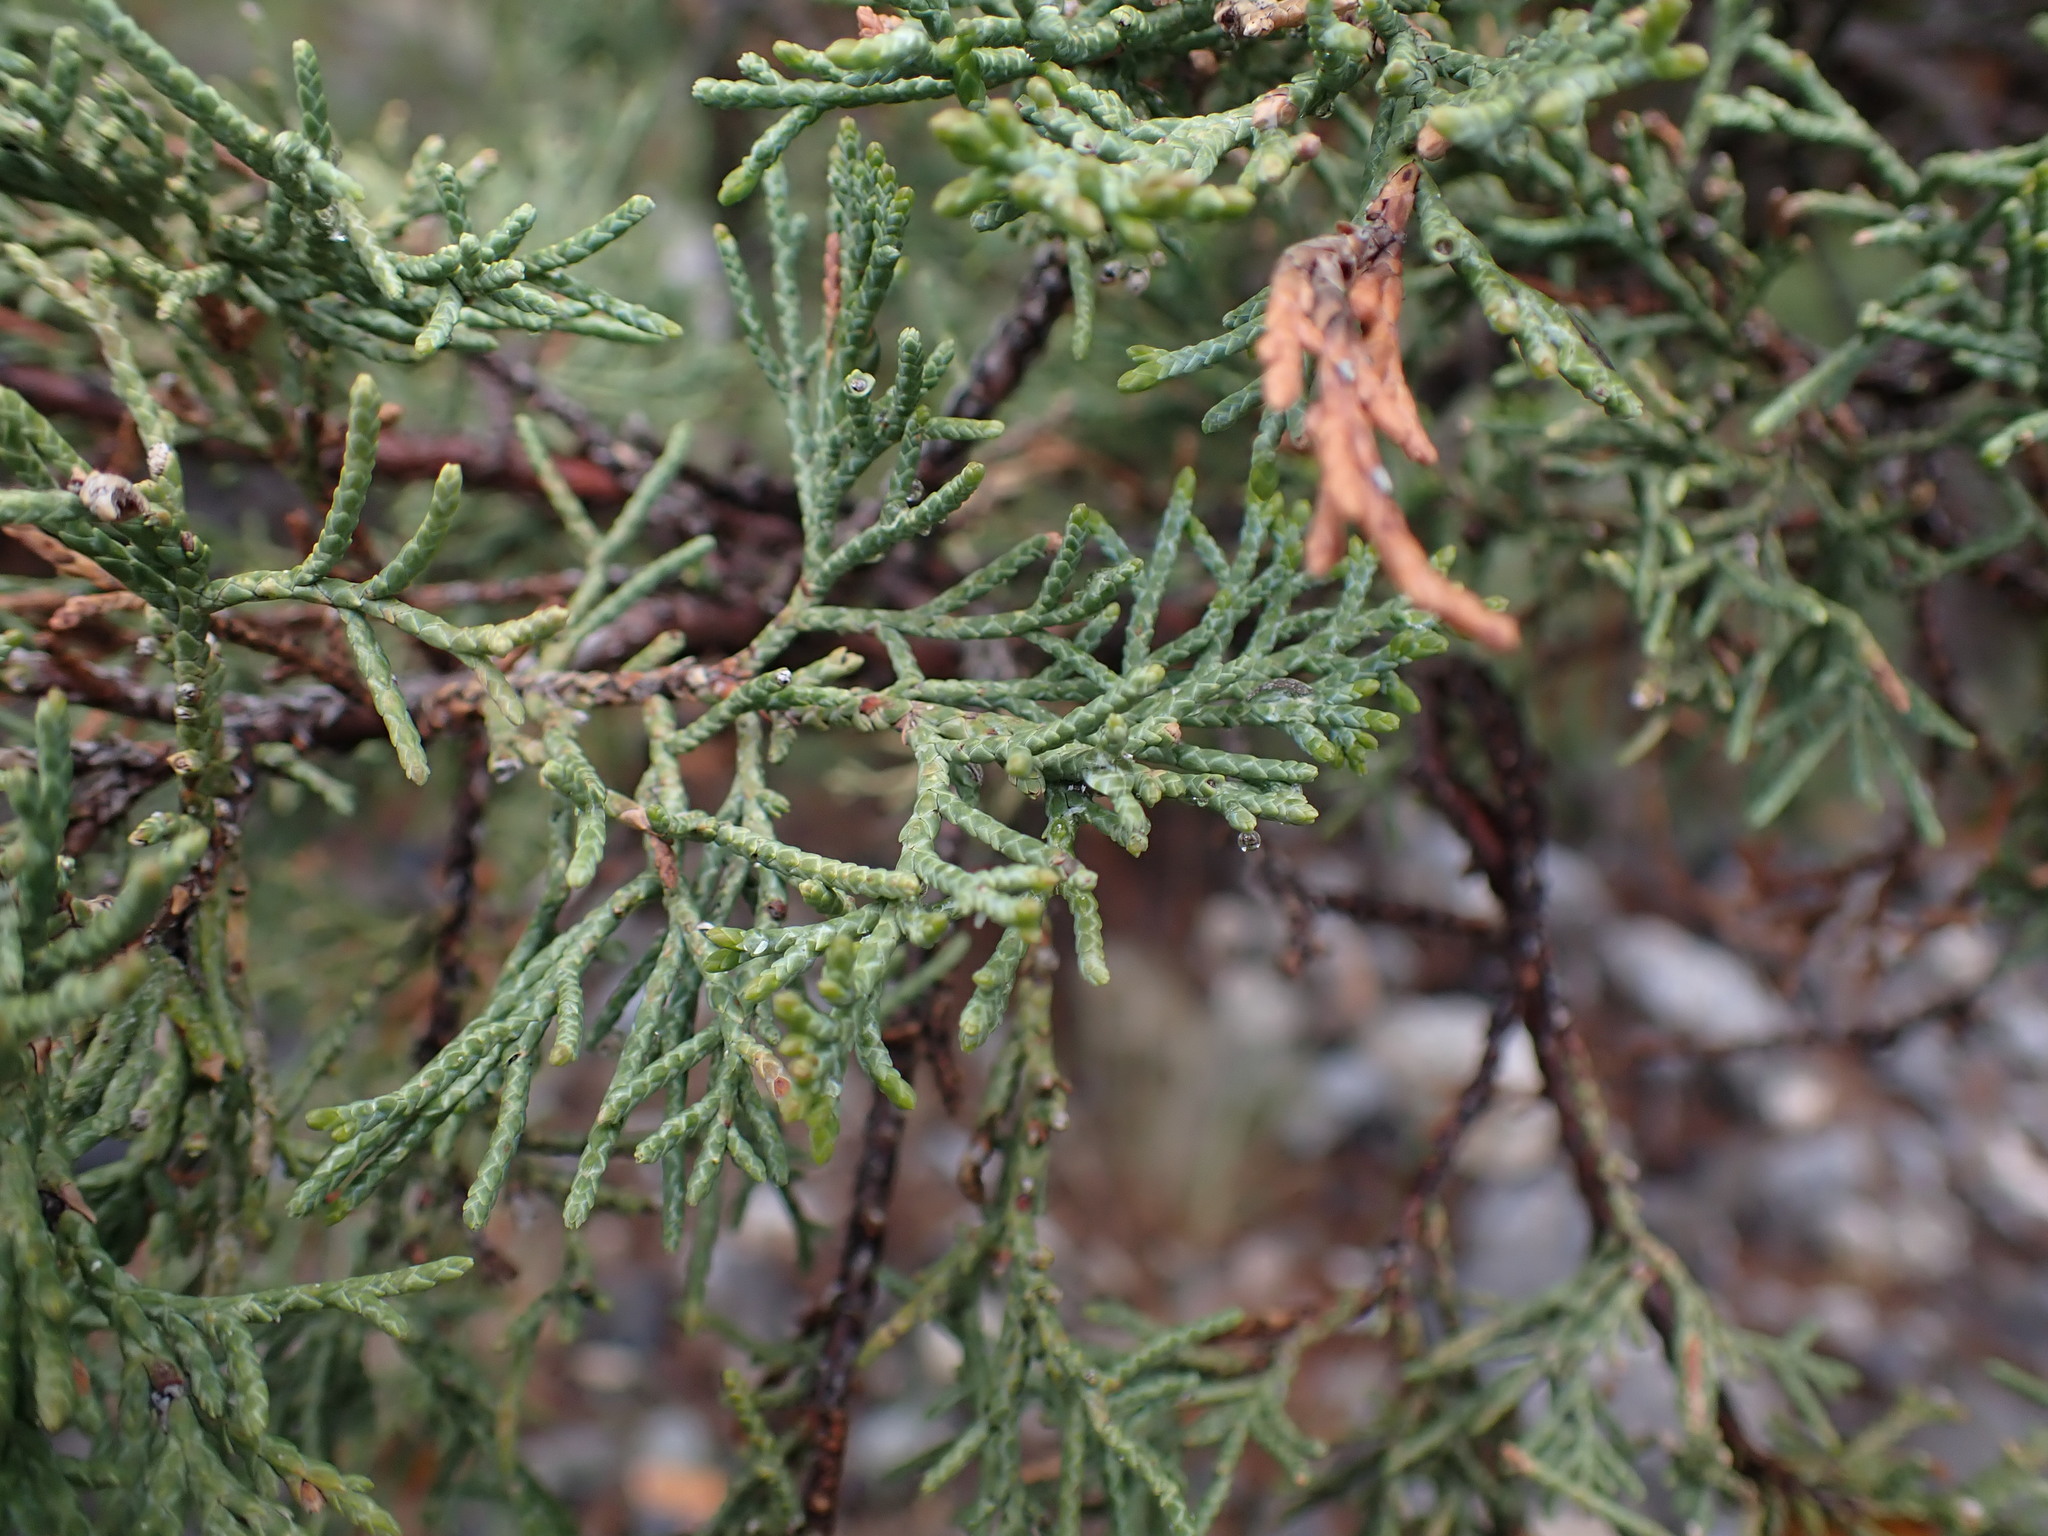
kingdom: Plantae
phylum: Tracheophyta
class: Pinopsida
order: Pinales
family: Cupressaceae
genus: Juniperus
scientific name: Juniperus scopulorum
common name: Rocky mountain juniper
